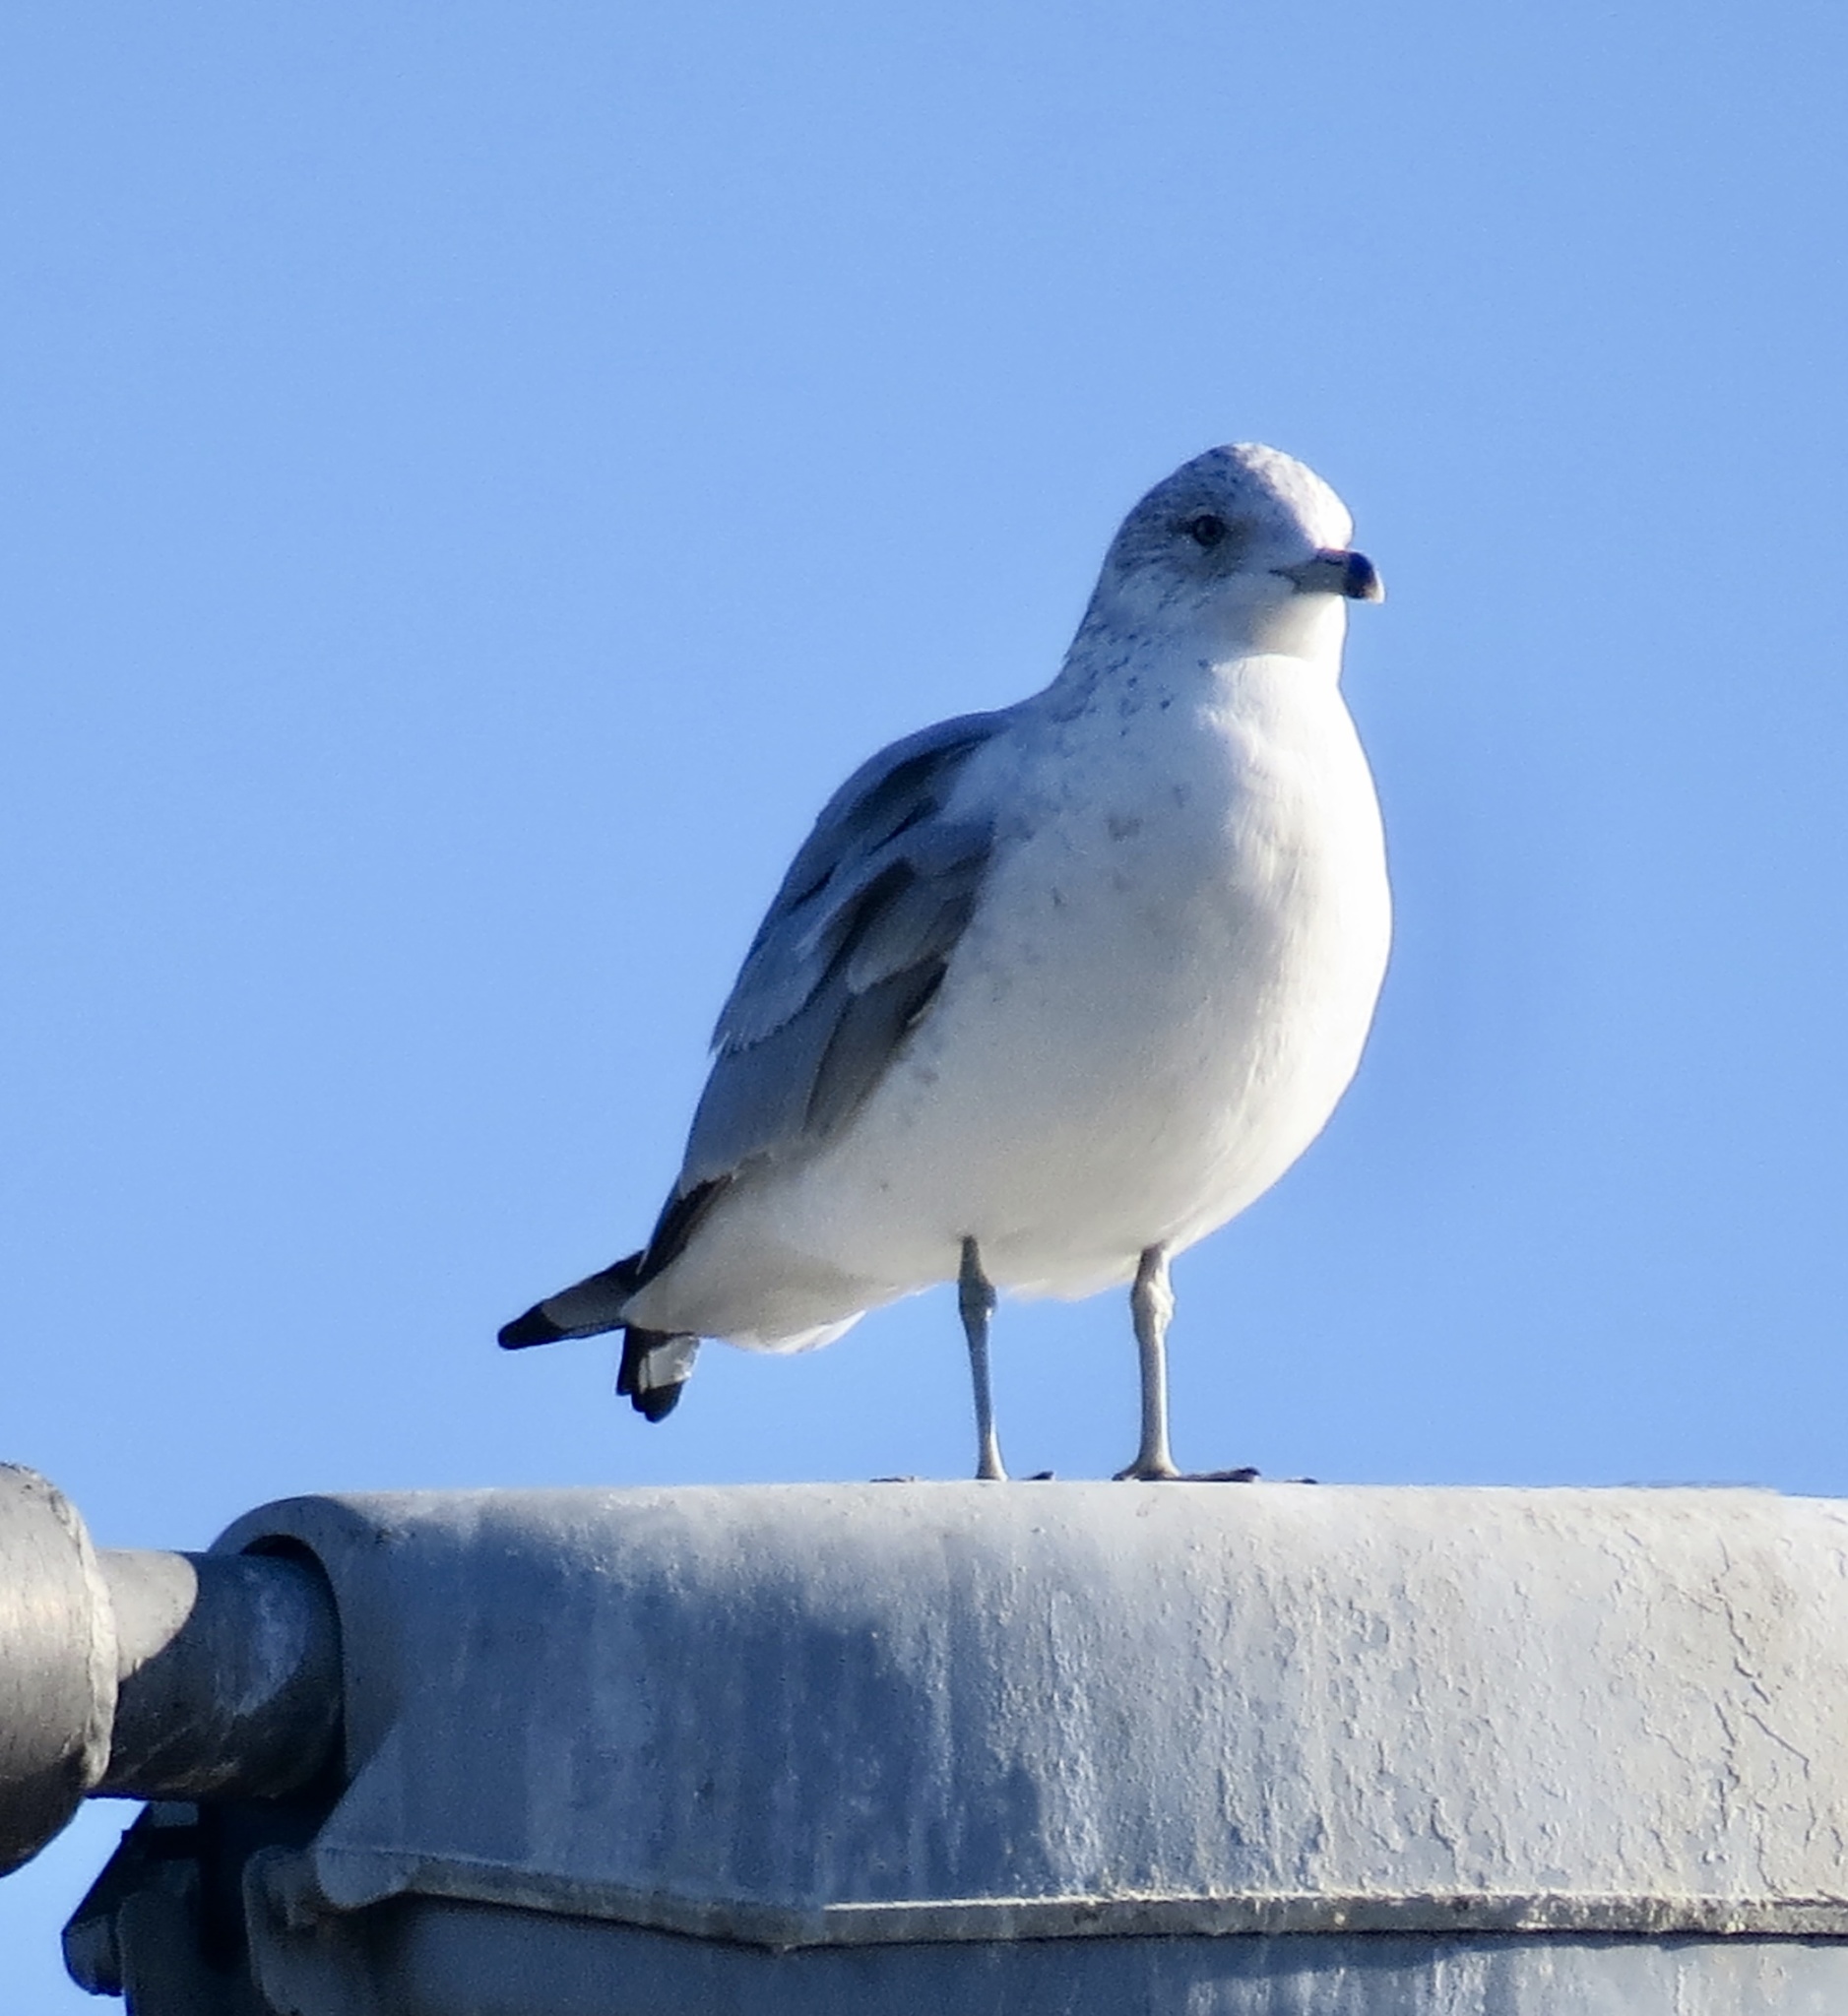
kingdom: Animalia
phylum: Chordata
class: Aves
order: Charadriiformes
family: Laridae
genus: Larus
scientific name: Larus delawarensis
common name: Ring-billed gull
